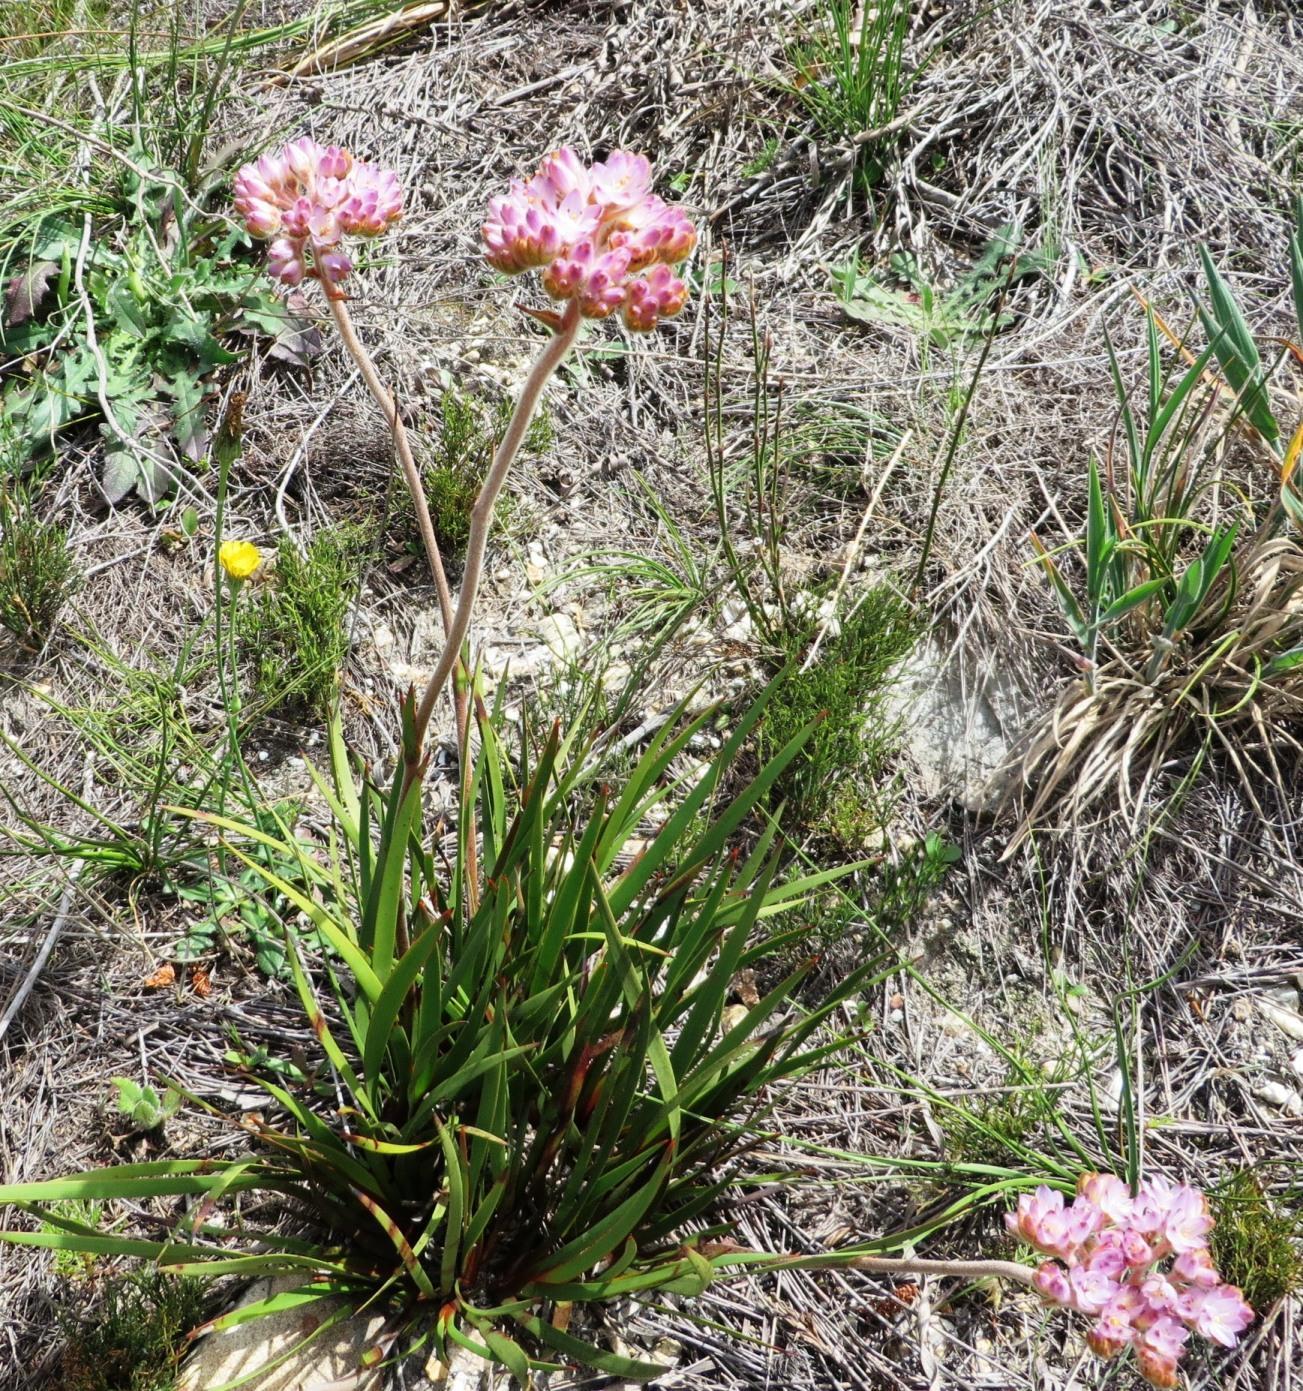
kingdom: Plantae
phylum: Tracheophyta
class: Liliopsida
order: Commelinales
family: Haemodoraceae
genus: Dilatris
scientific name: Dilatris corymbosa
